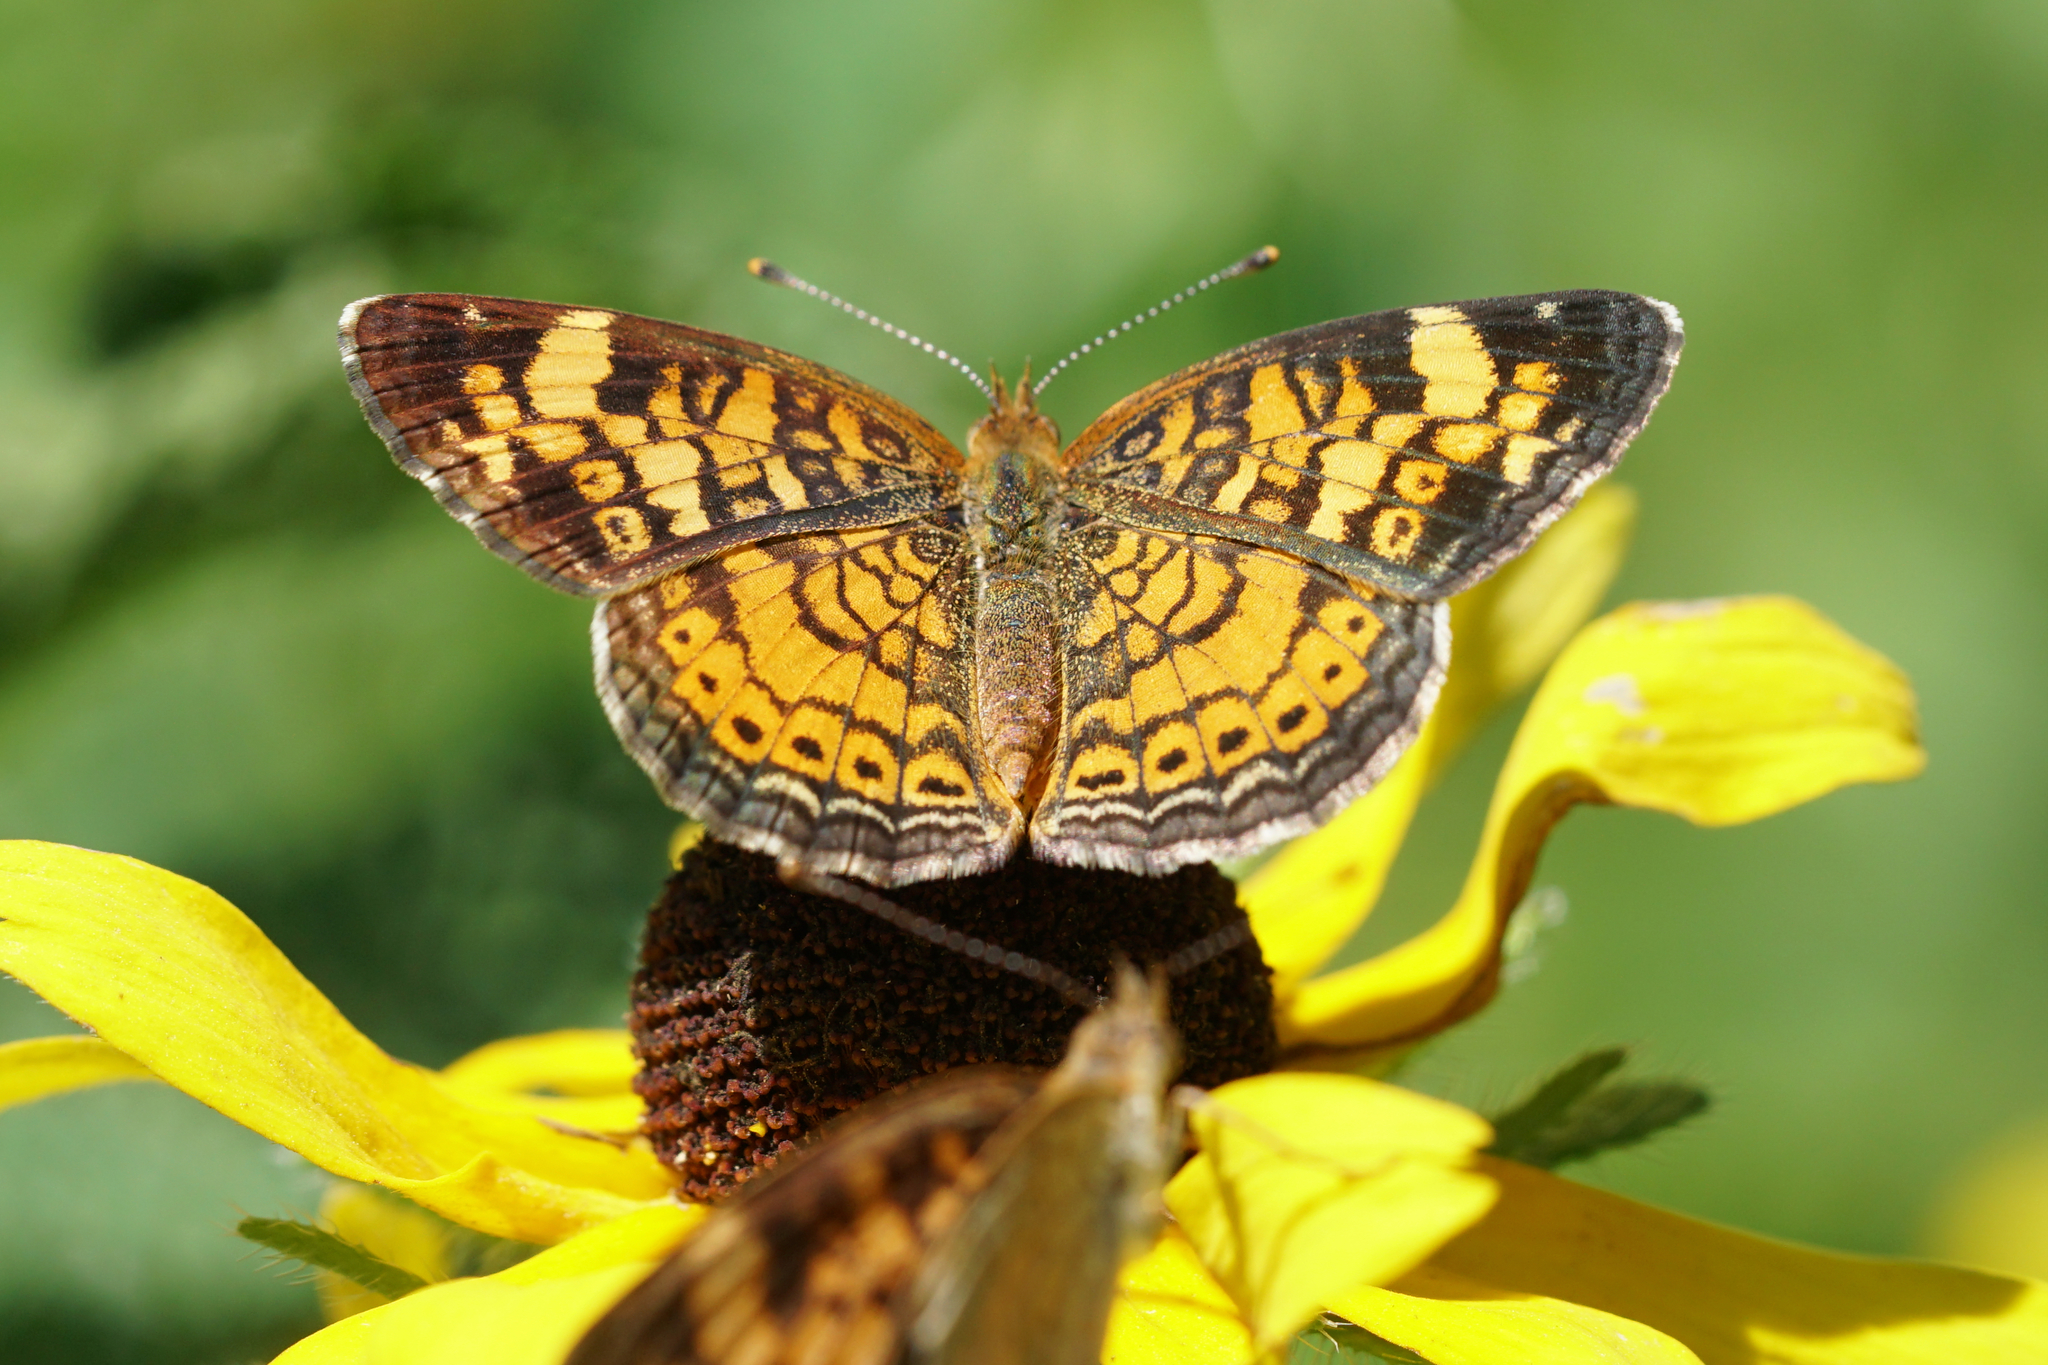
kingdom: Animalia
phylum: Arthropoda
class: Insecta
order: Lepidoptera
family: Nymphalidae
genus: Phyciodes
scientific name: Phyciodes tharos
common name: Pearl crescent
